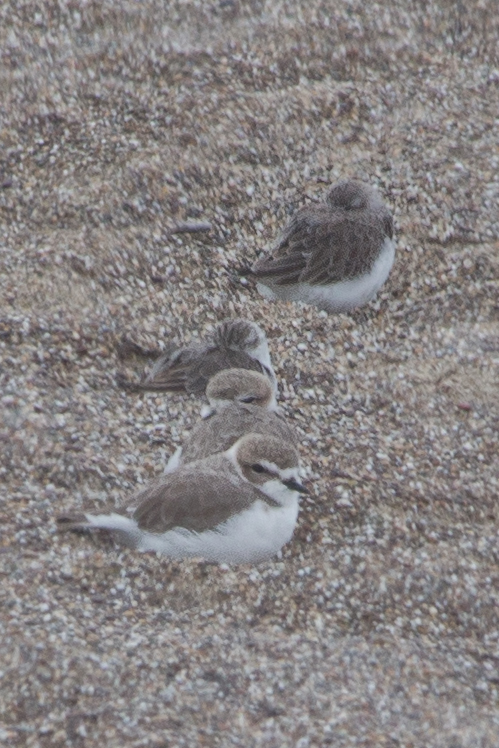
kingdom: Animalia
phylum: Chordata
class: Aves
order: Charadriiformes
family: Charadriidae
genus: Anarhynchus
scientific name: Anarhynchus
